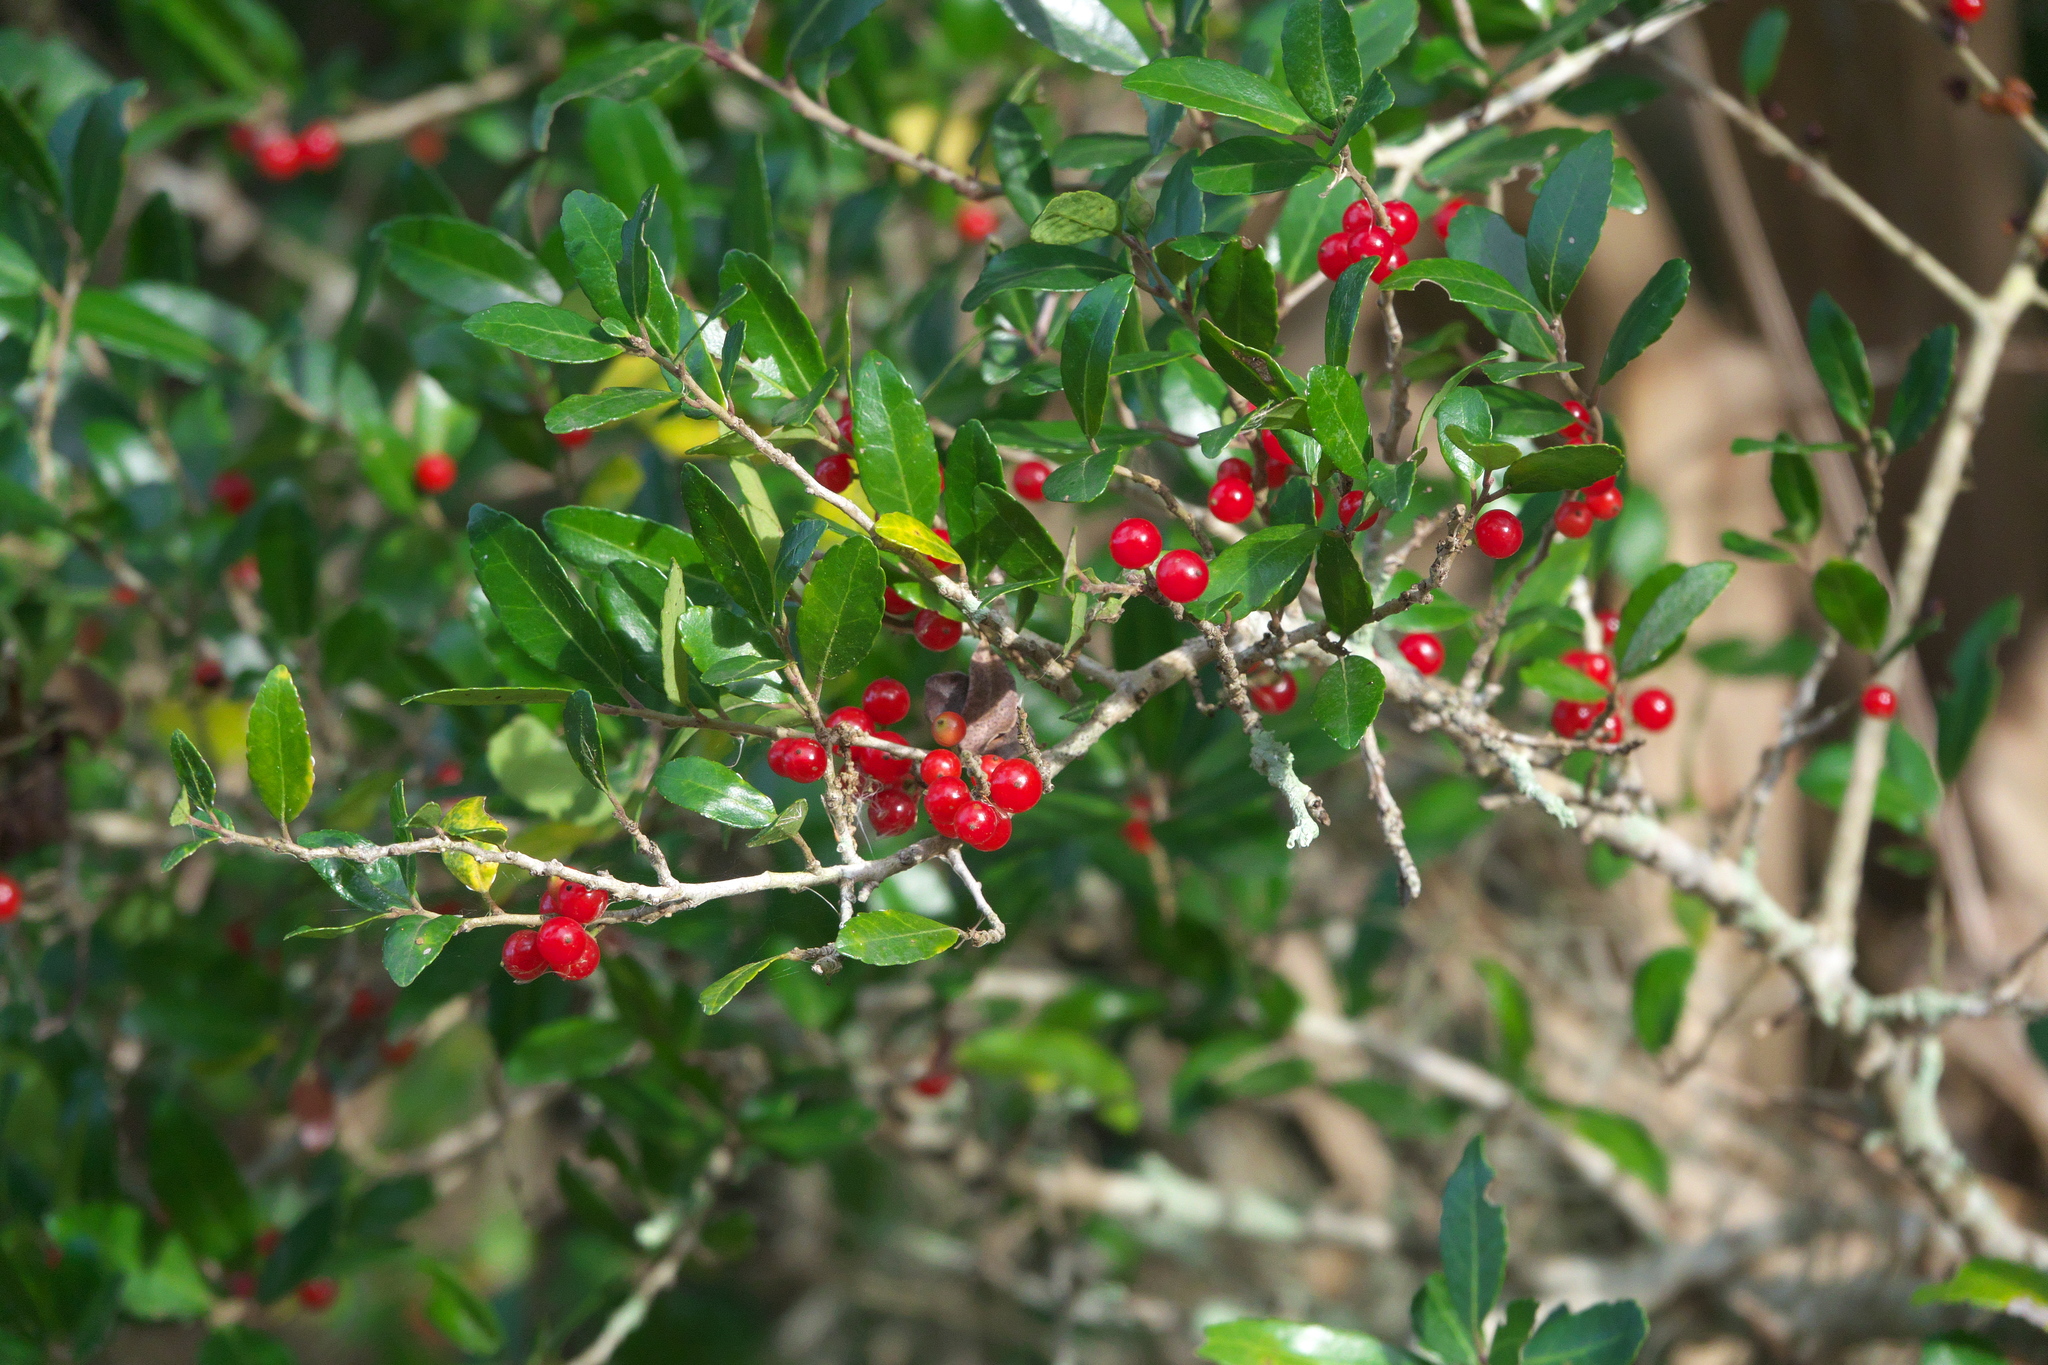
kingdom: Plantae
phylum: Tracheophyta
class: Magnoliopsida
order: Aquifoliales
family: Aquifoliaceae
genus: Ilex
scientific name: Ilex vomitoria
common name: Yaupon holly
